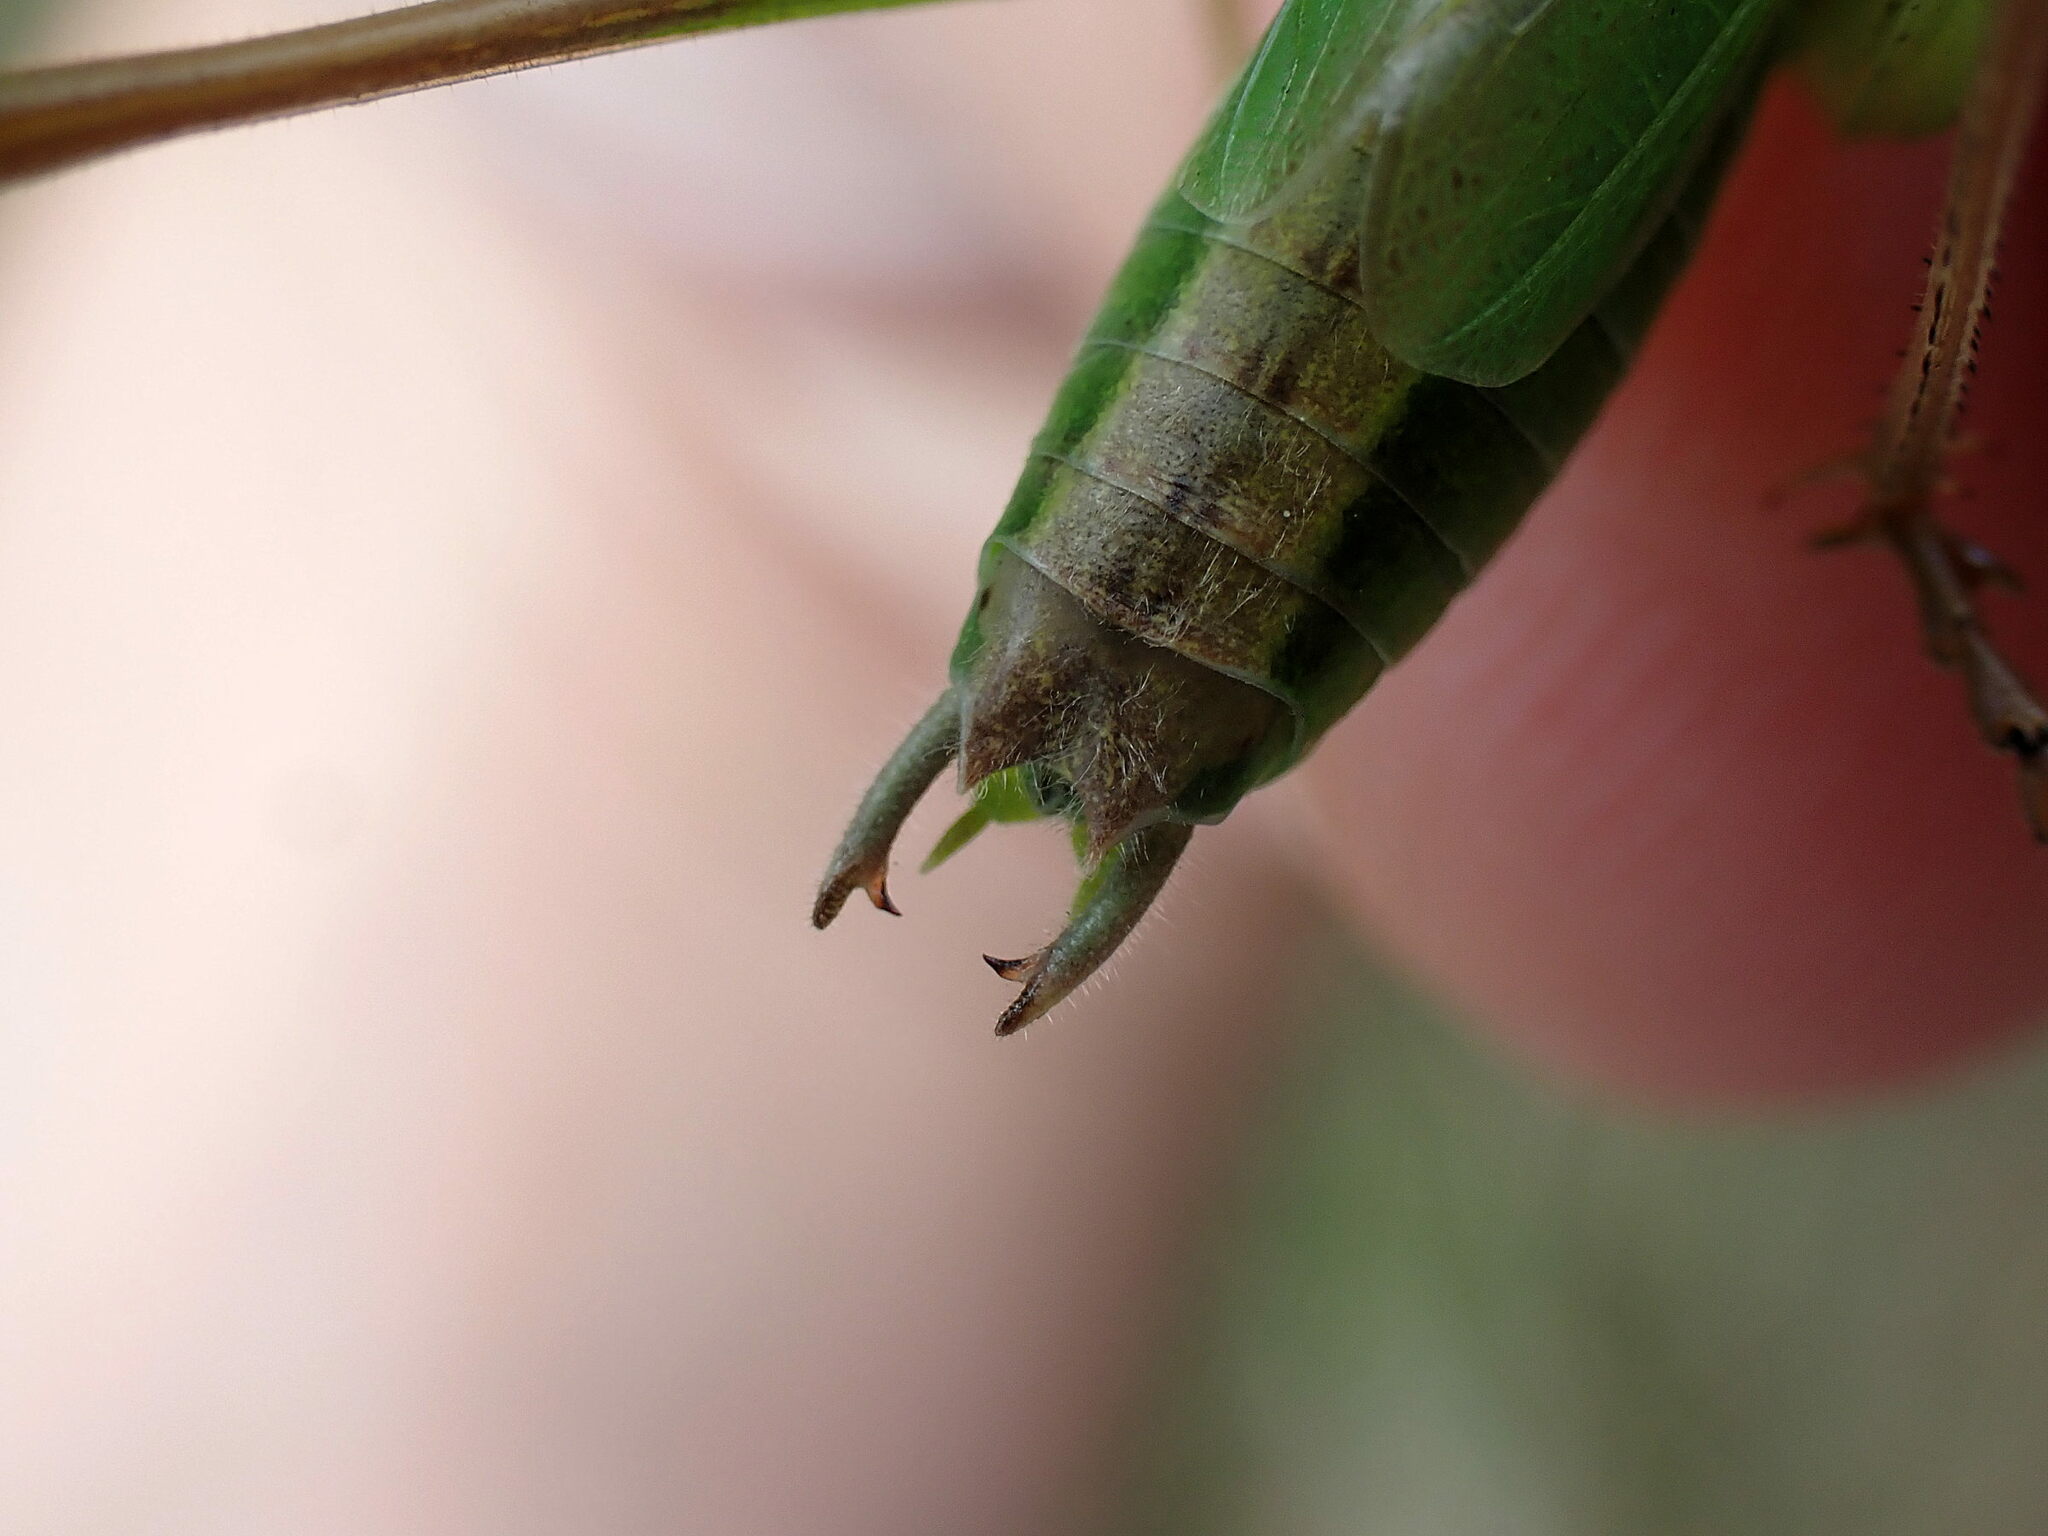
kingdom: Animalia
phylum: Arthropoda
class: Insecta
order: Orthoptera
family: Tettigoniidae
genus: Bicolorana
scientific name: Bicolorana bicolor
